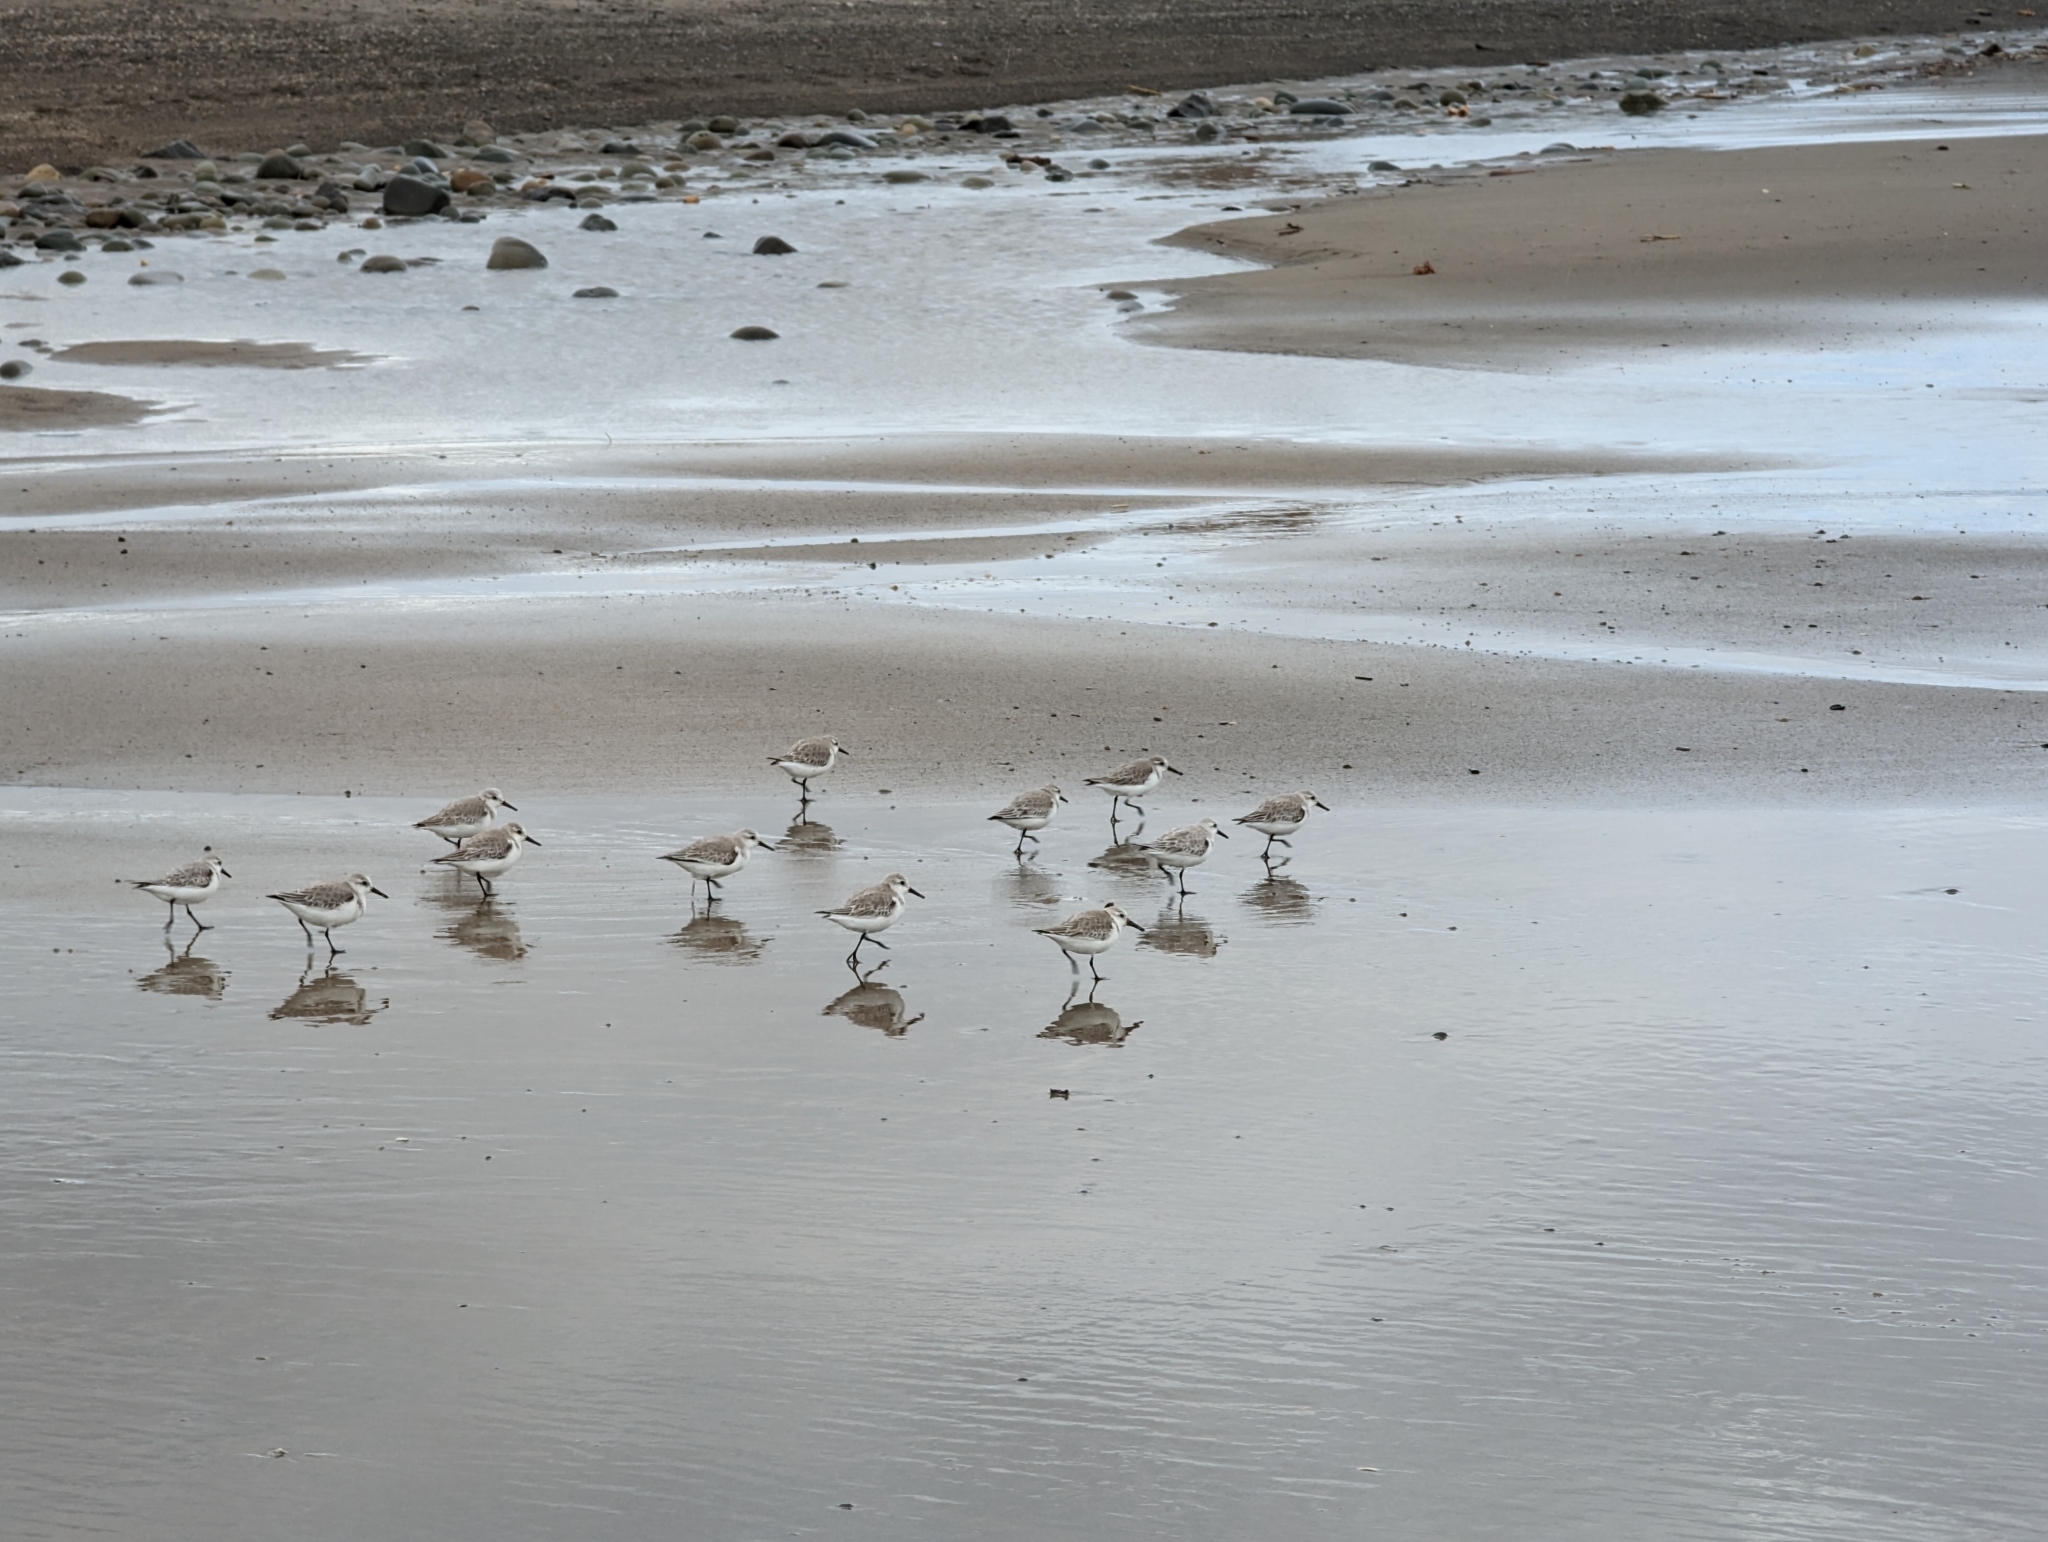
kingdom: Animalia
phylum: Chordata
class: Aves
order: Charadriiformes
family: Scolopacidae
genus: Calidris
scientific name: Calidris alba
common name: Sanderling
